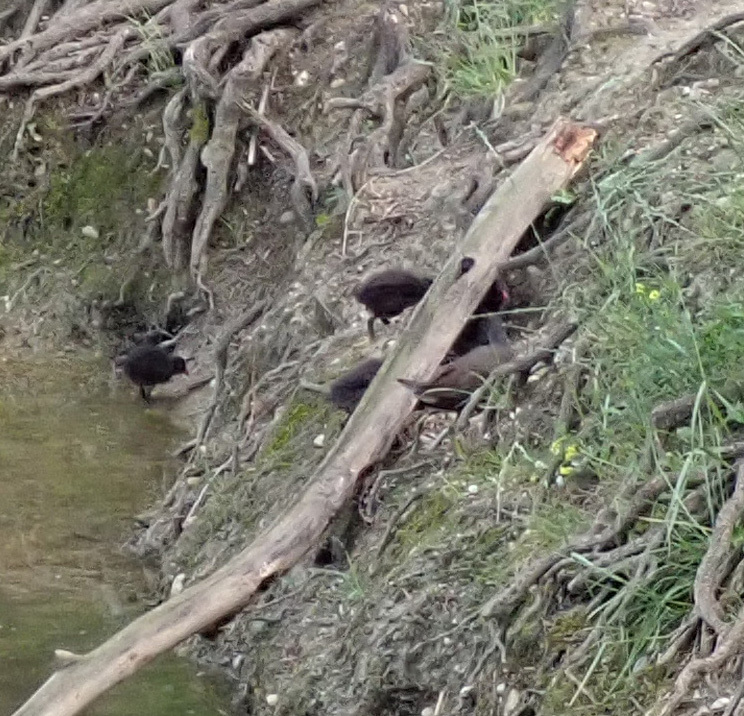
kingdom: Animalia
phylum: Chordata
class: Aves
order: Gruiformes
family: Rallidae
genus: Gallinula
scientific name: Gallinula chloropus
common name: Common moorhen
